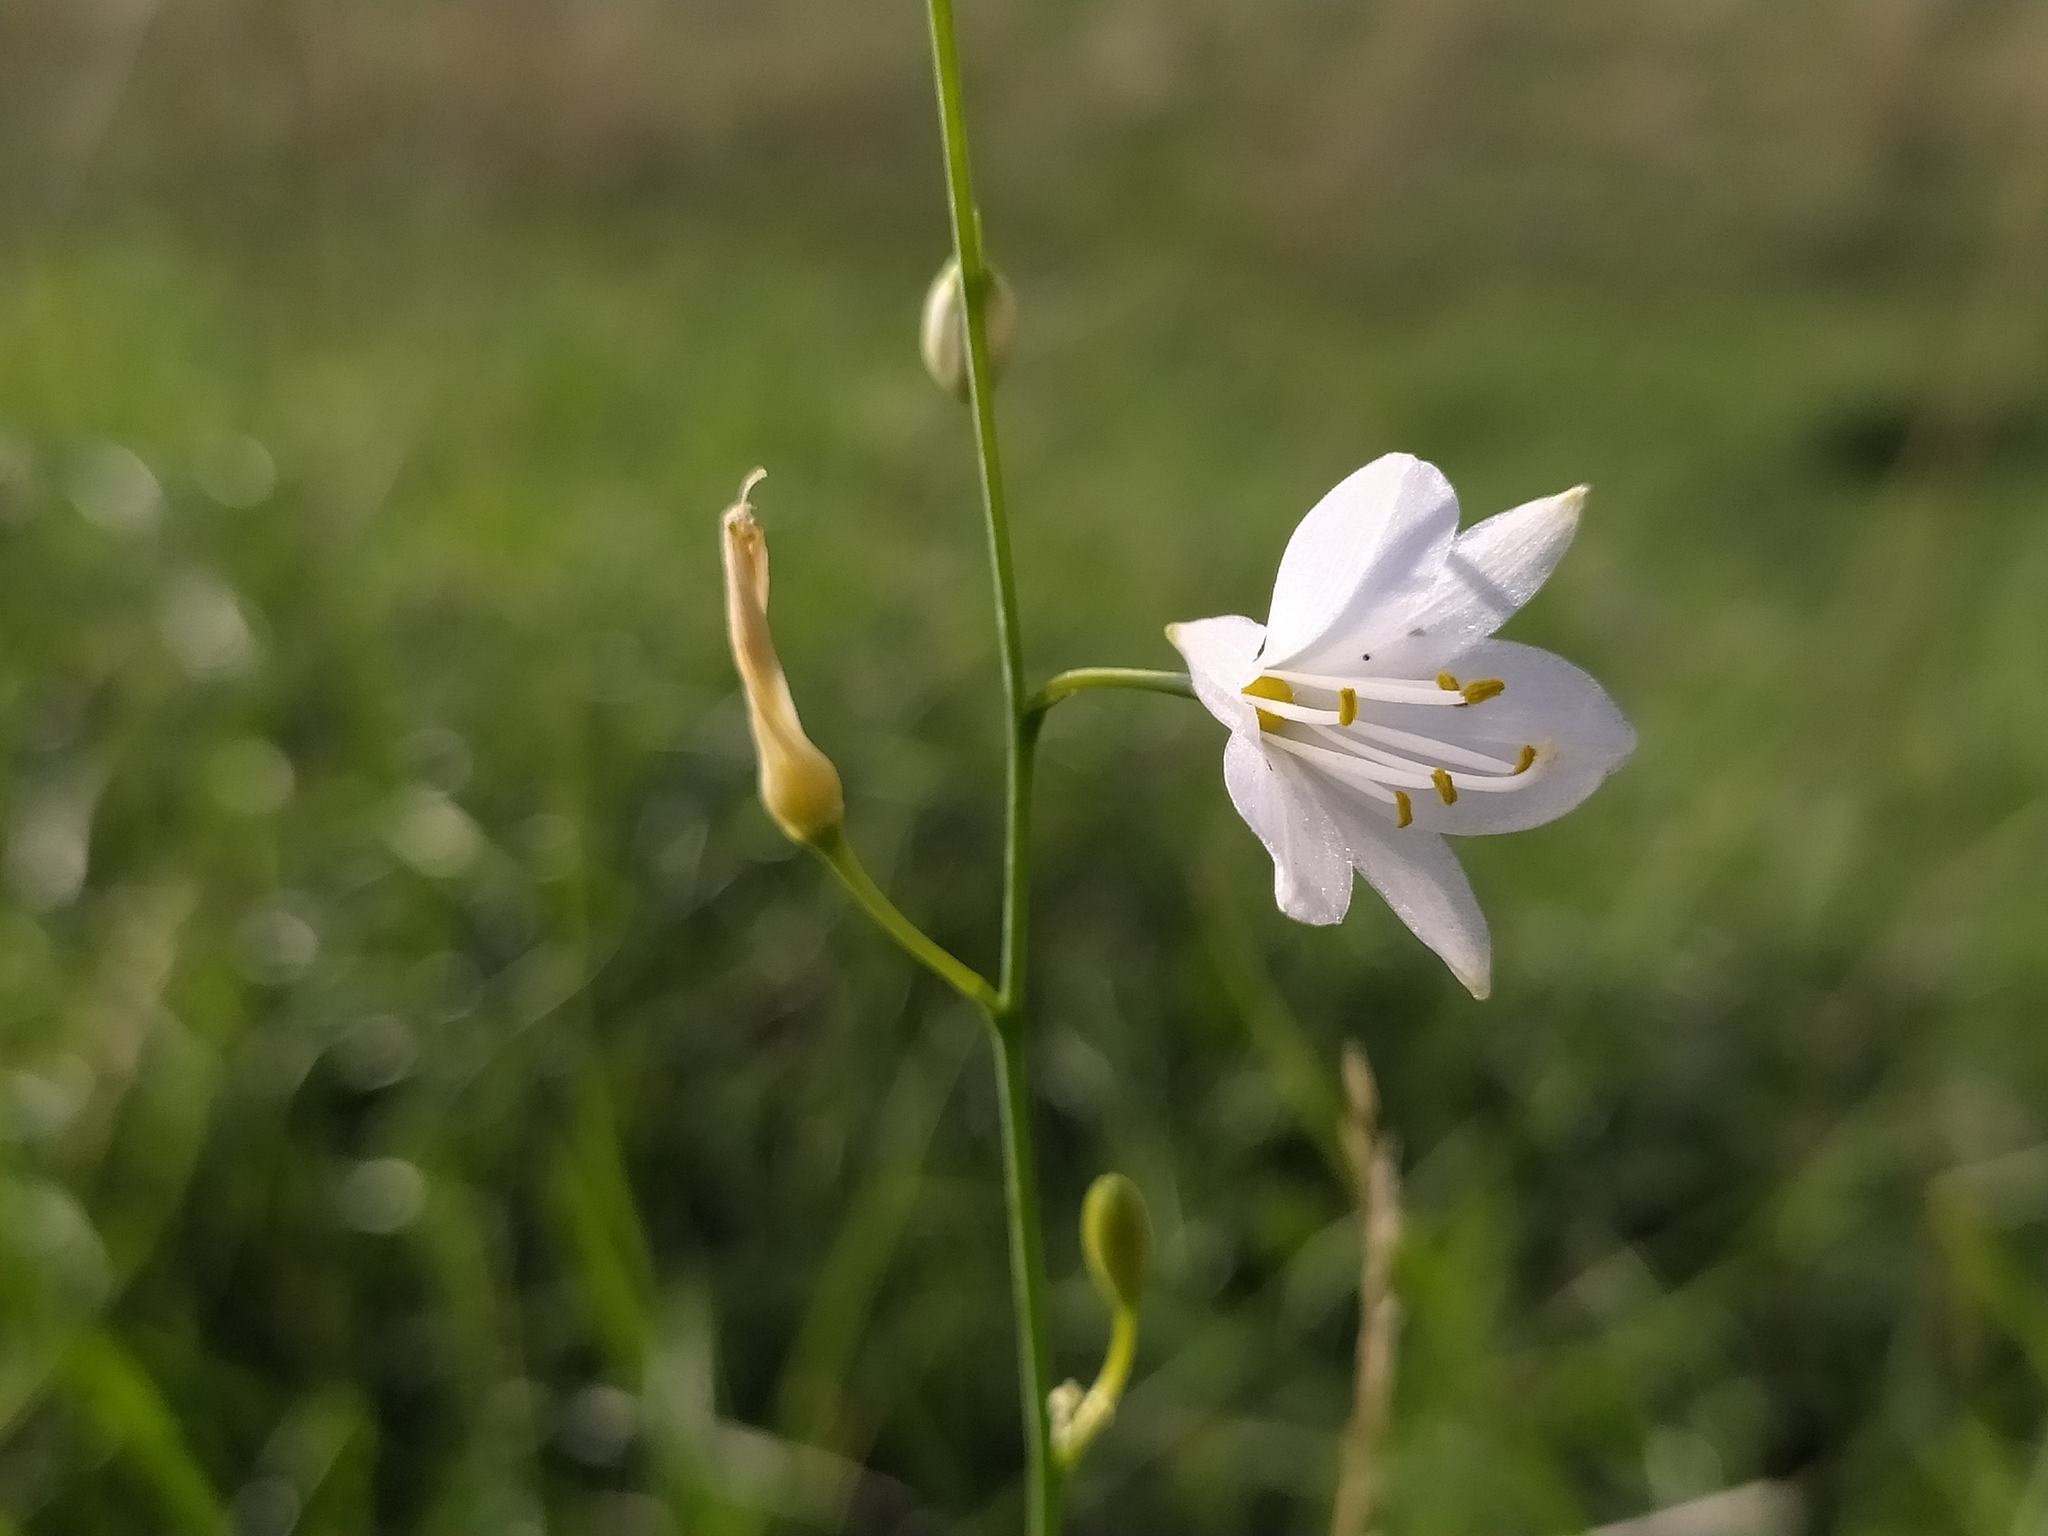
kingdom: Plantae
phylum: Tracheophyta
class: Liliopsida
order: Asparagales
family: Asparagaceae
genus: Anthericum
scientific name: Anthericum ramosum
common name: Branched st. bernard's-lily
